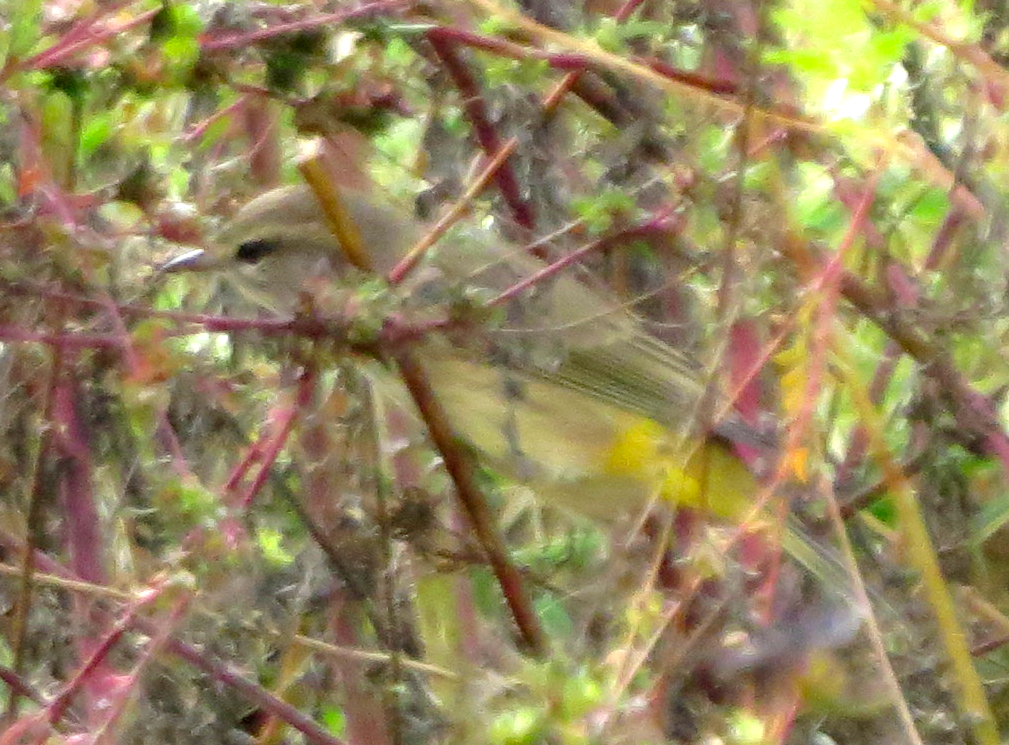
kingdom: Animalia
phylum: Chordata
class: Aves
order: Passeriformes
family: Parulidae
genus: Setophaga
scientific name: Setophaga palmarum
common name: Palm warbler
